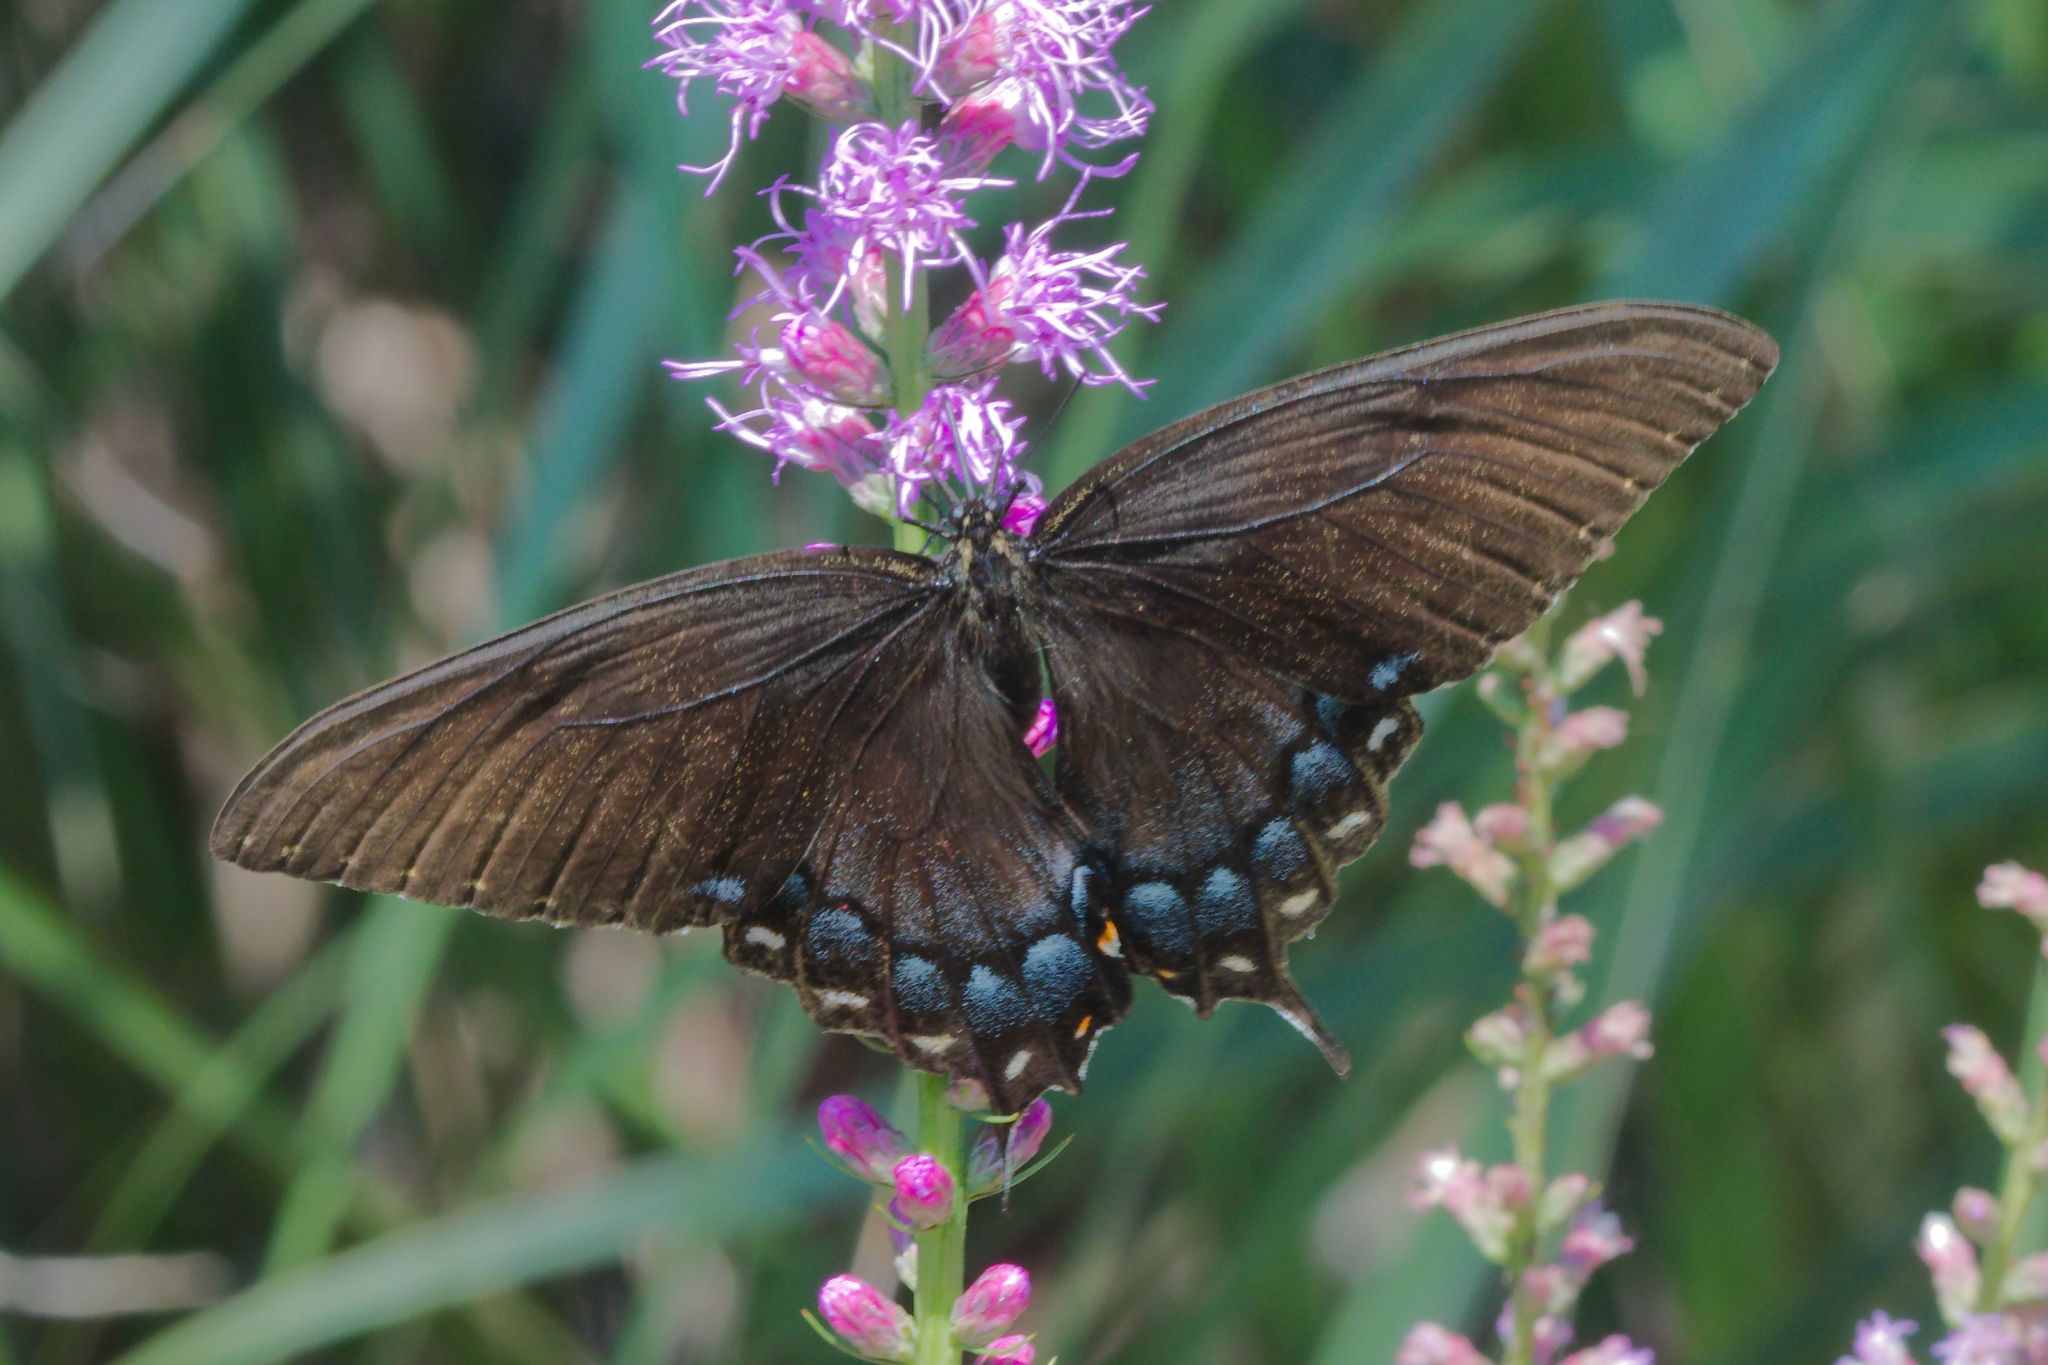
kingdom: Animalia
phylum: Arthropoda
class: Insecta
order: Lepidoptera
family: Papilionidae
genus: Papilio
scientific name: Papilio glaucus
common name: Tiger swallowtail
